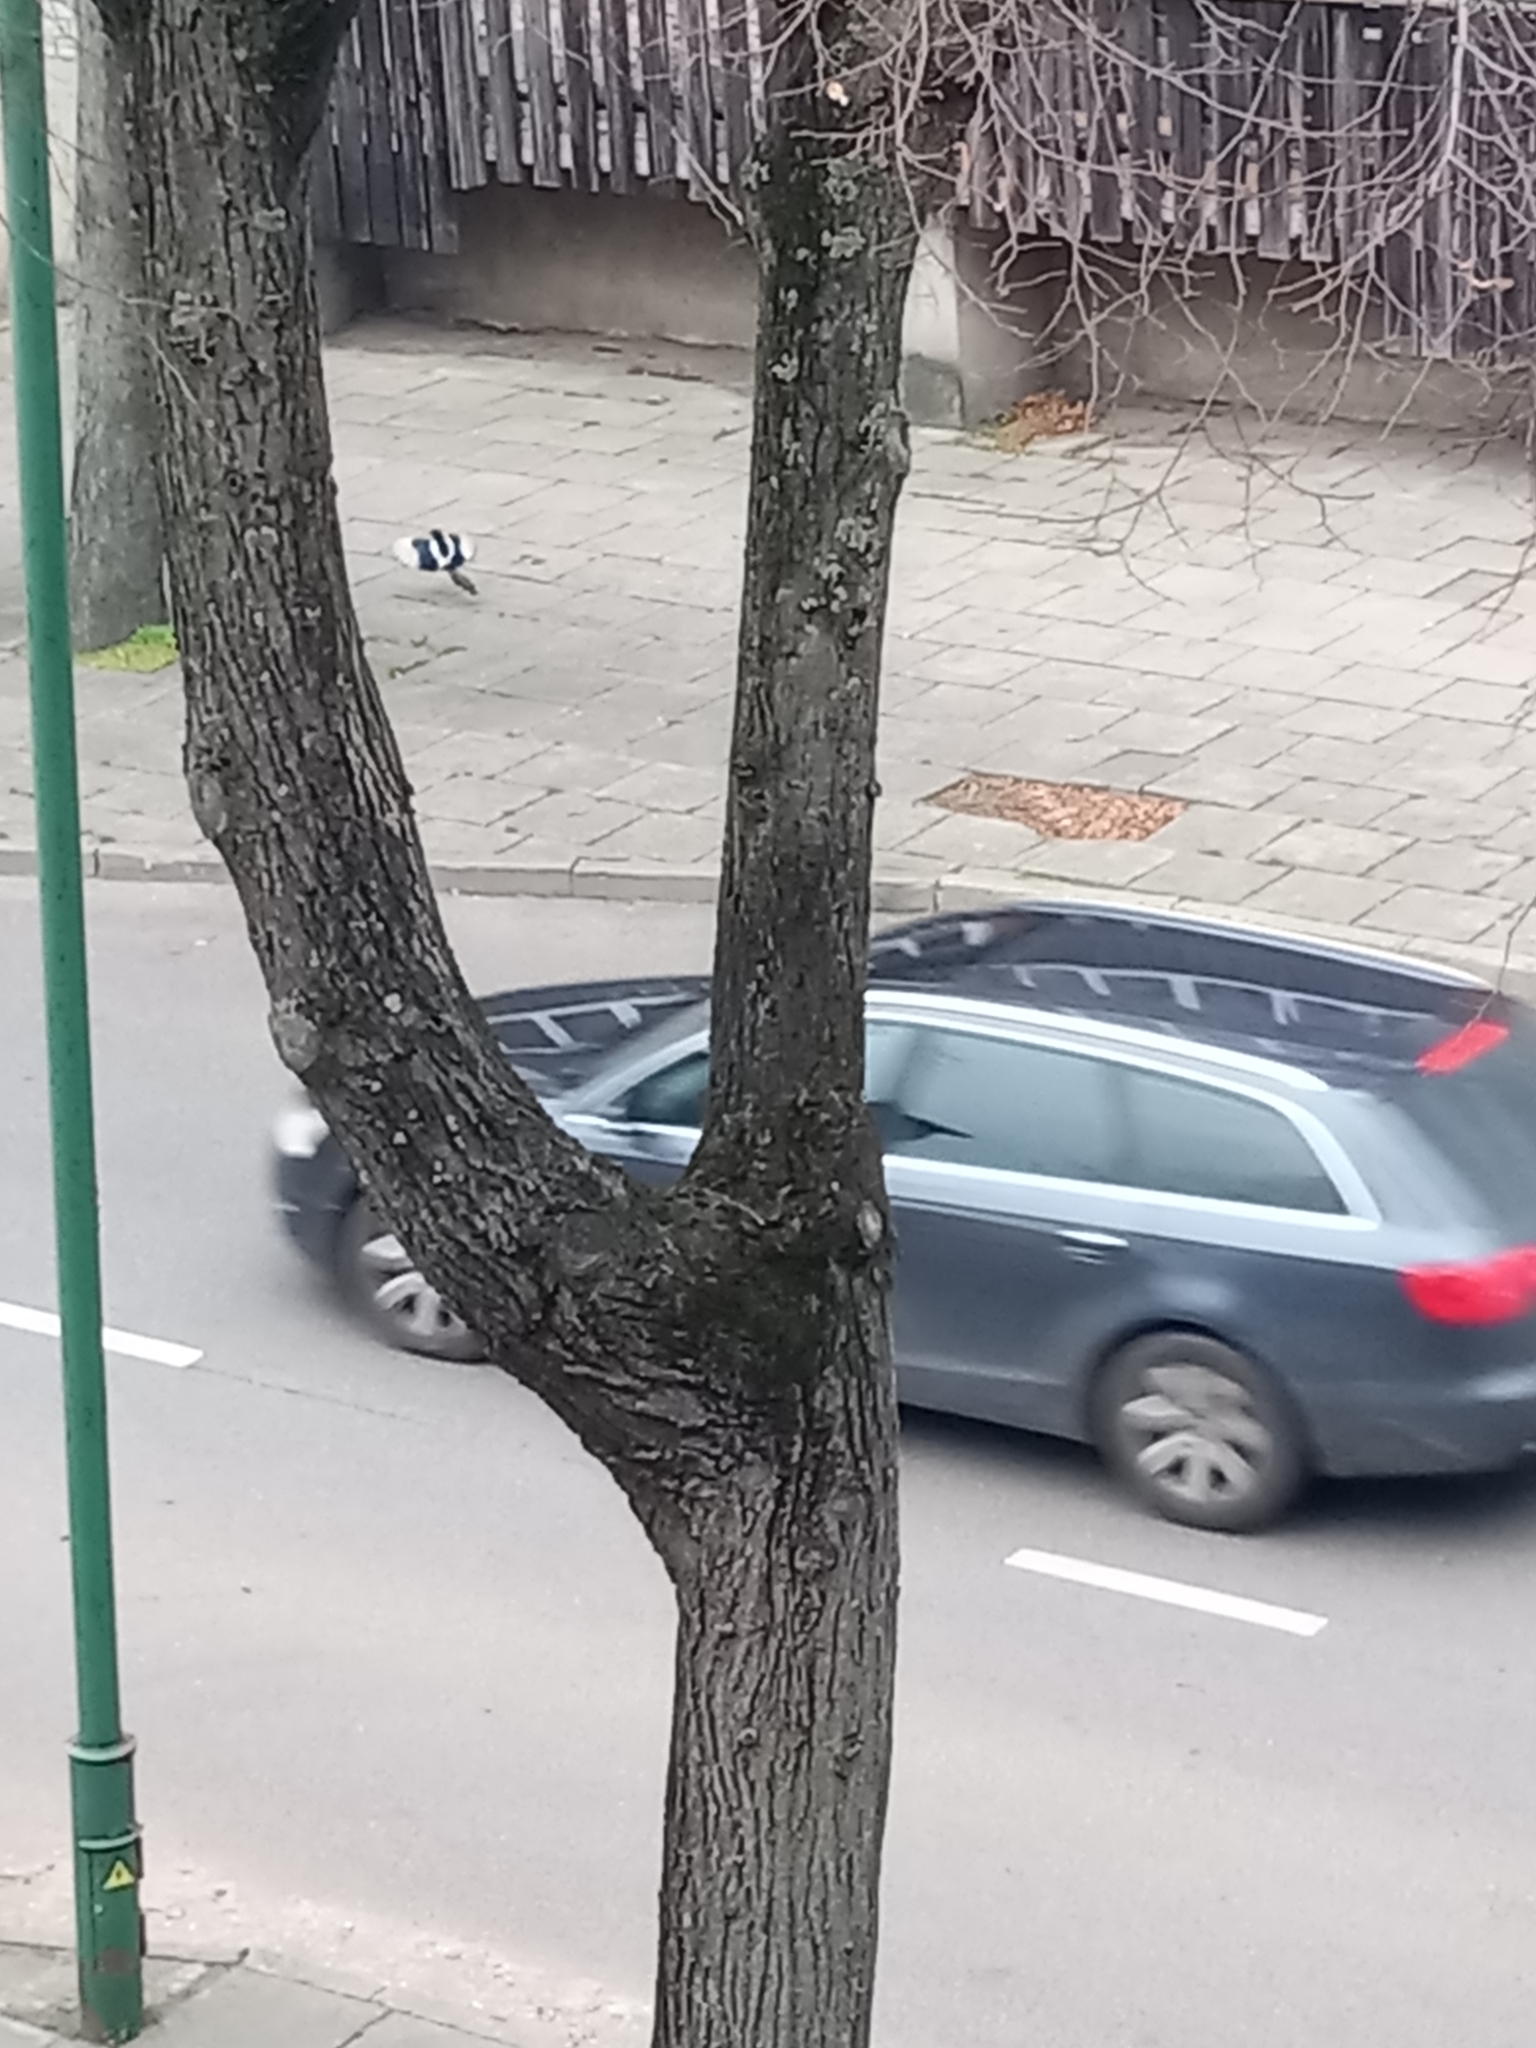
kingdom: Animalia
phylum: Chordata
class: Aves
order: Passeriformes
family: Corvidae
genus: Pica
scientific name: Pica pica
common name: Eurasian magpie
